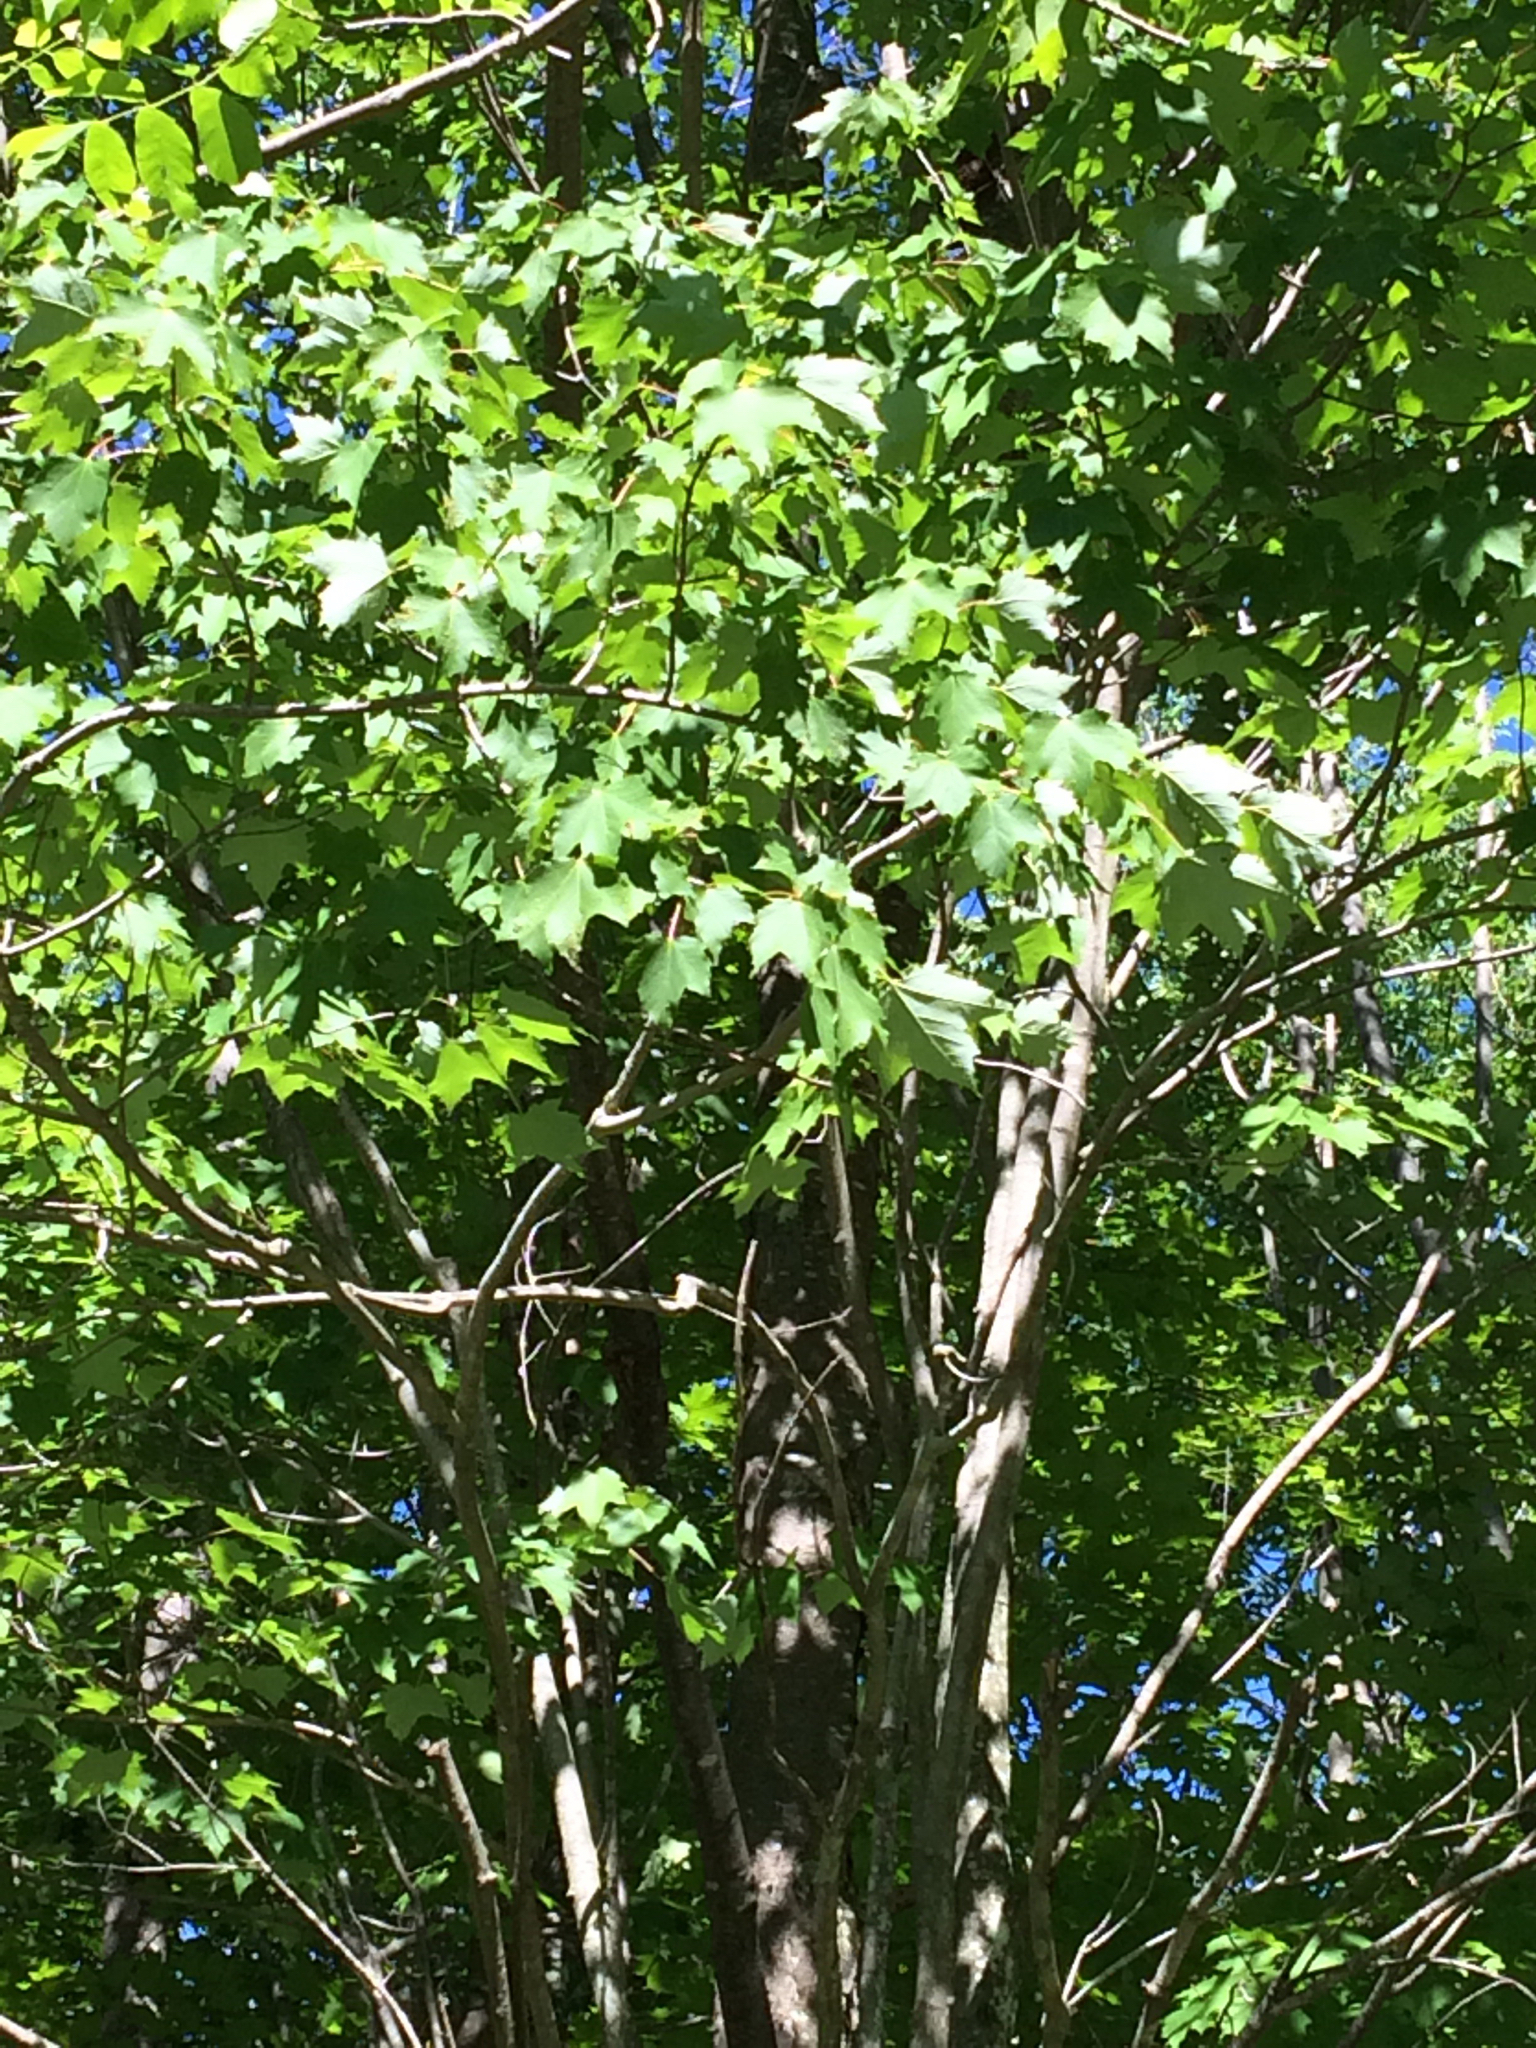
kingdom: Plantae
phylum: Tracheophyta
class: Magnoliopsida
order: Sapindales
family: Sapindaceae
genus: Acer
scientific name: Acer rubrum
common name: Red maple
